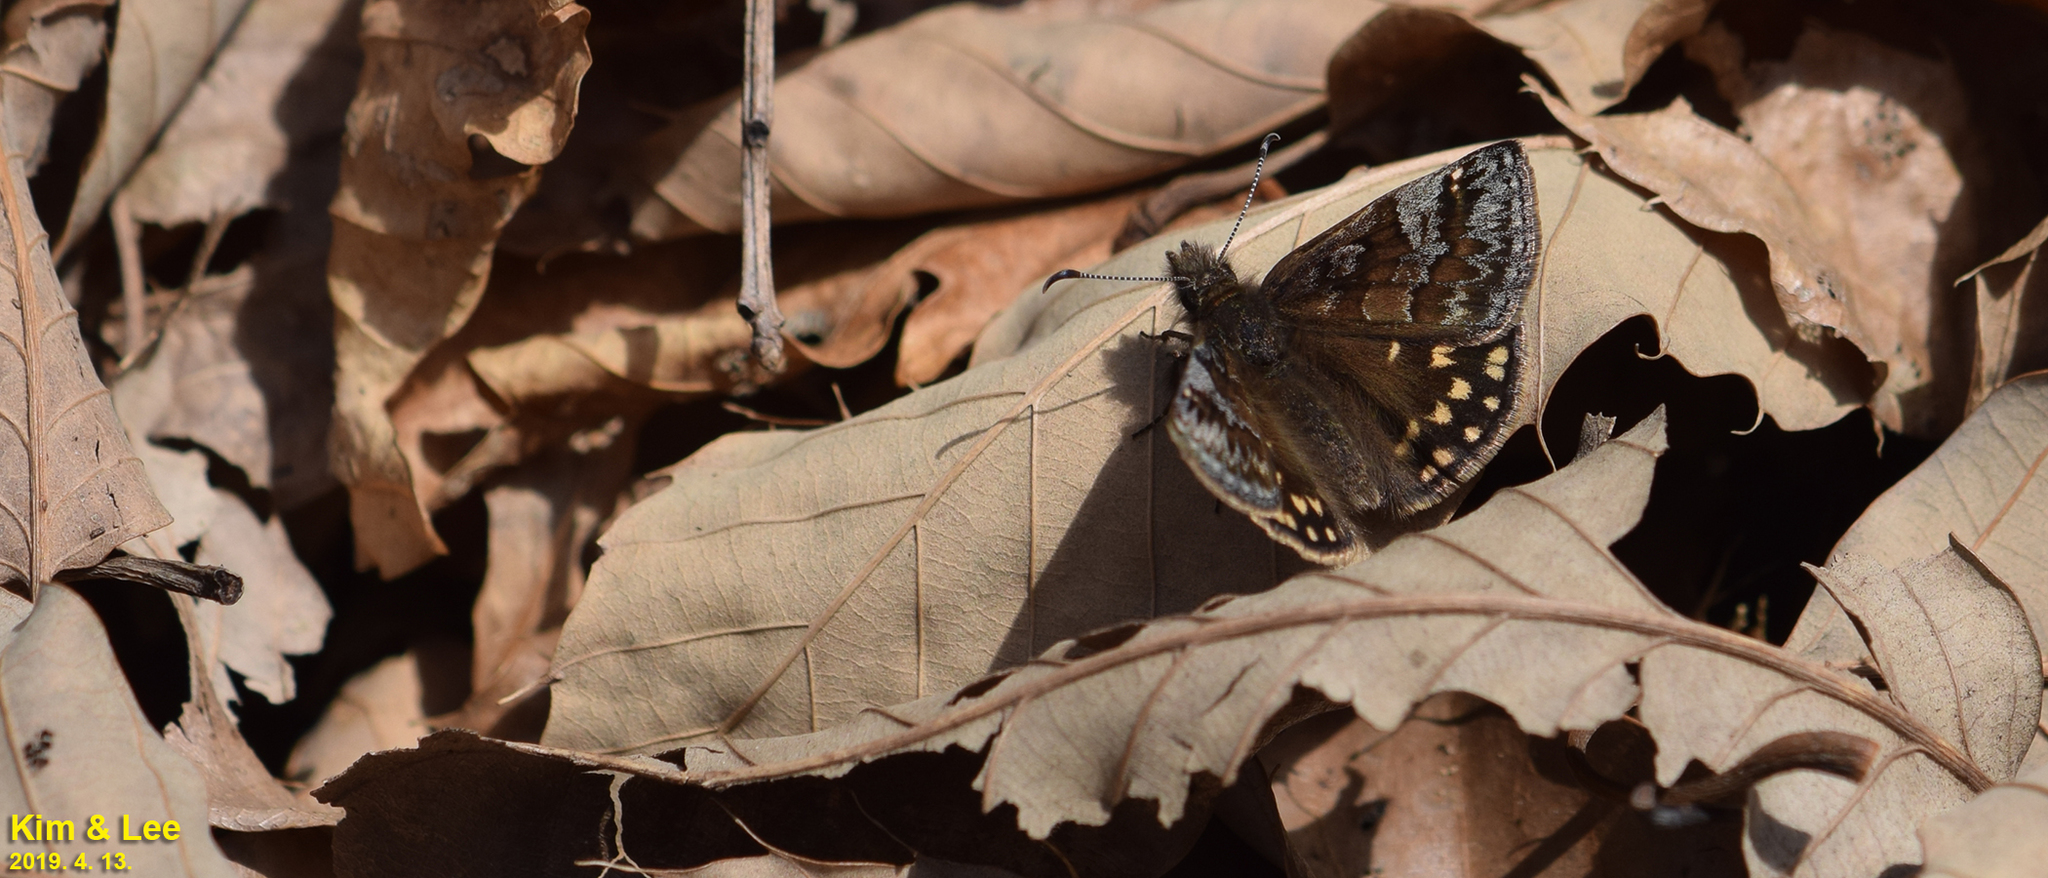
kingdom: Animalia
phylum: Arthropoda
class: Insecta
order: Lepidoptera
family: Hesperiidae
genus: Erynnis
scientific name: Erynnis montanus
